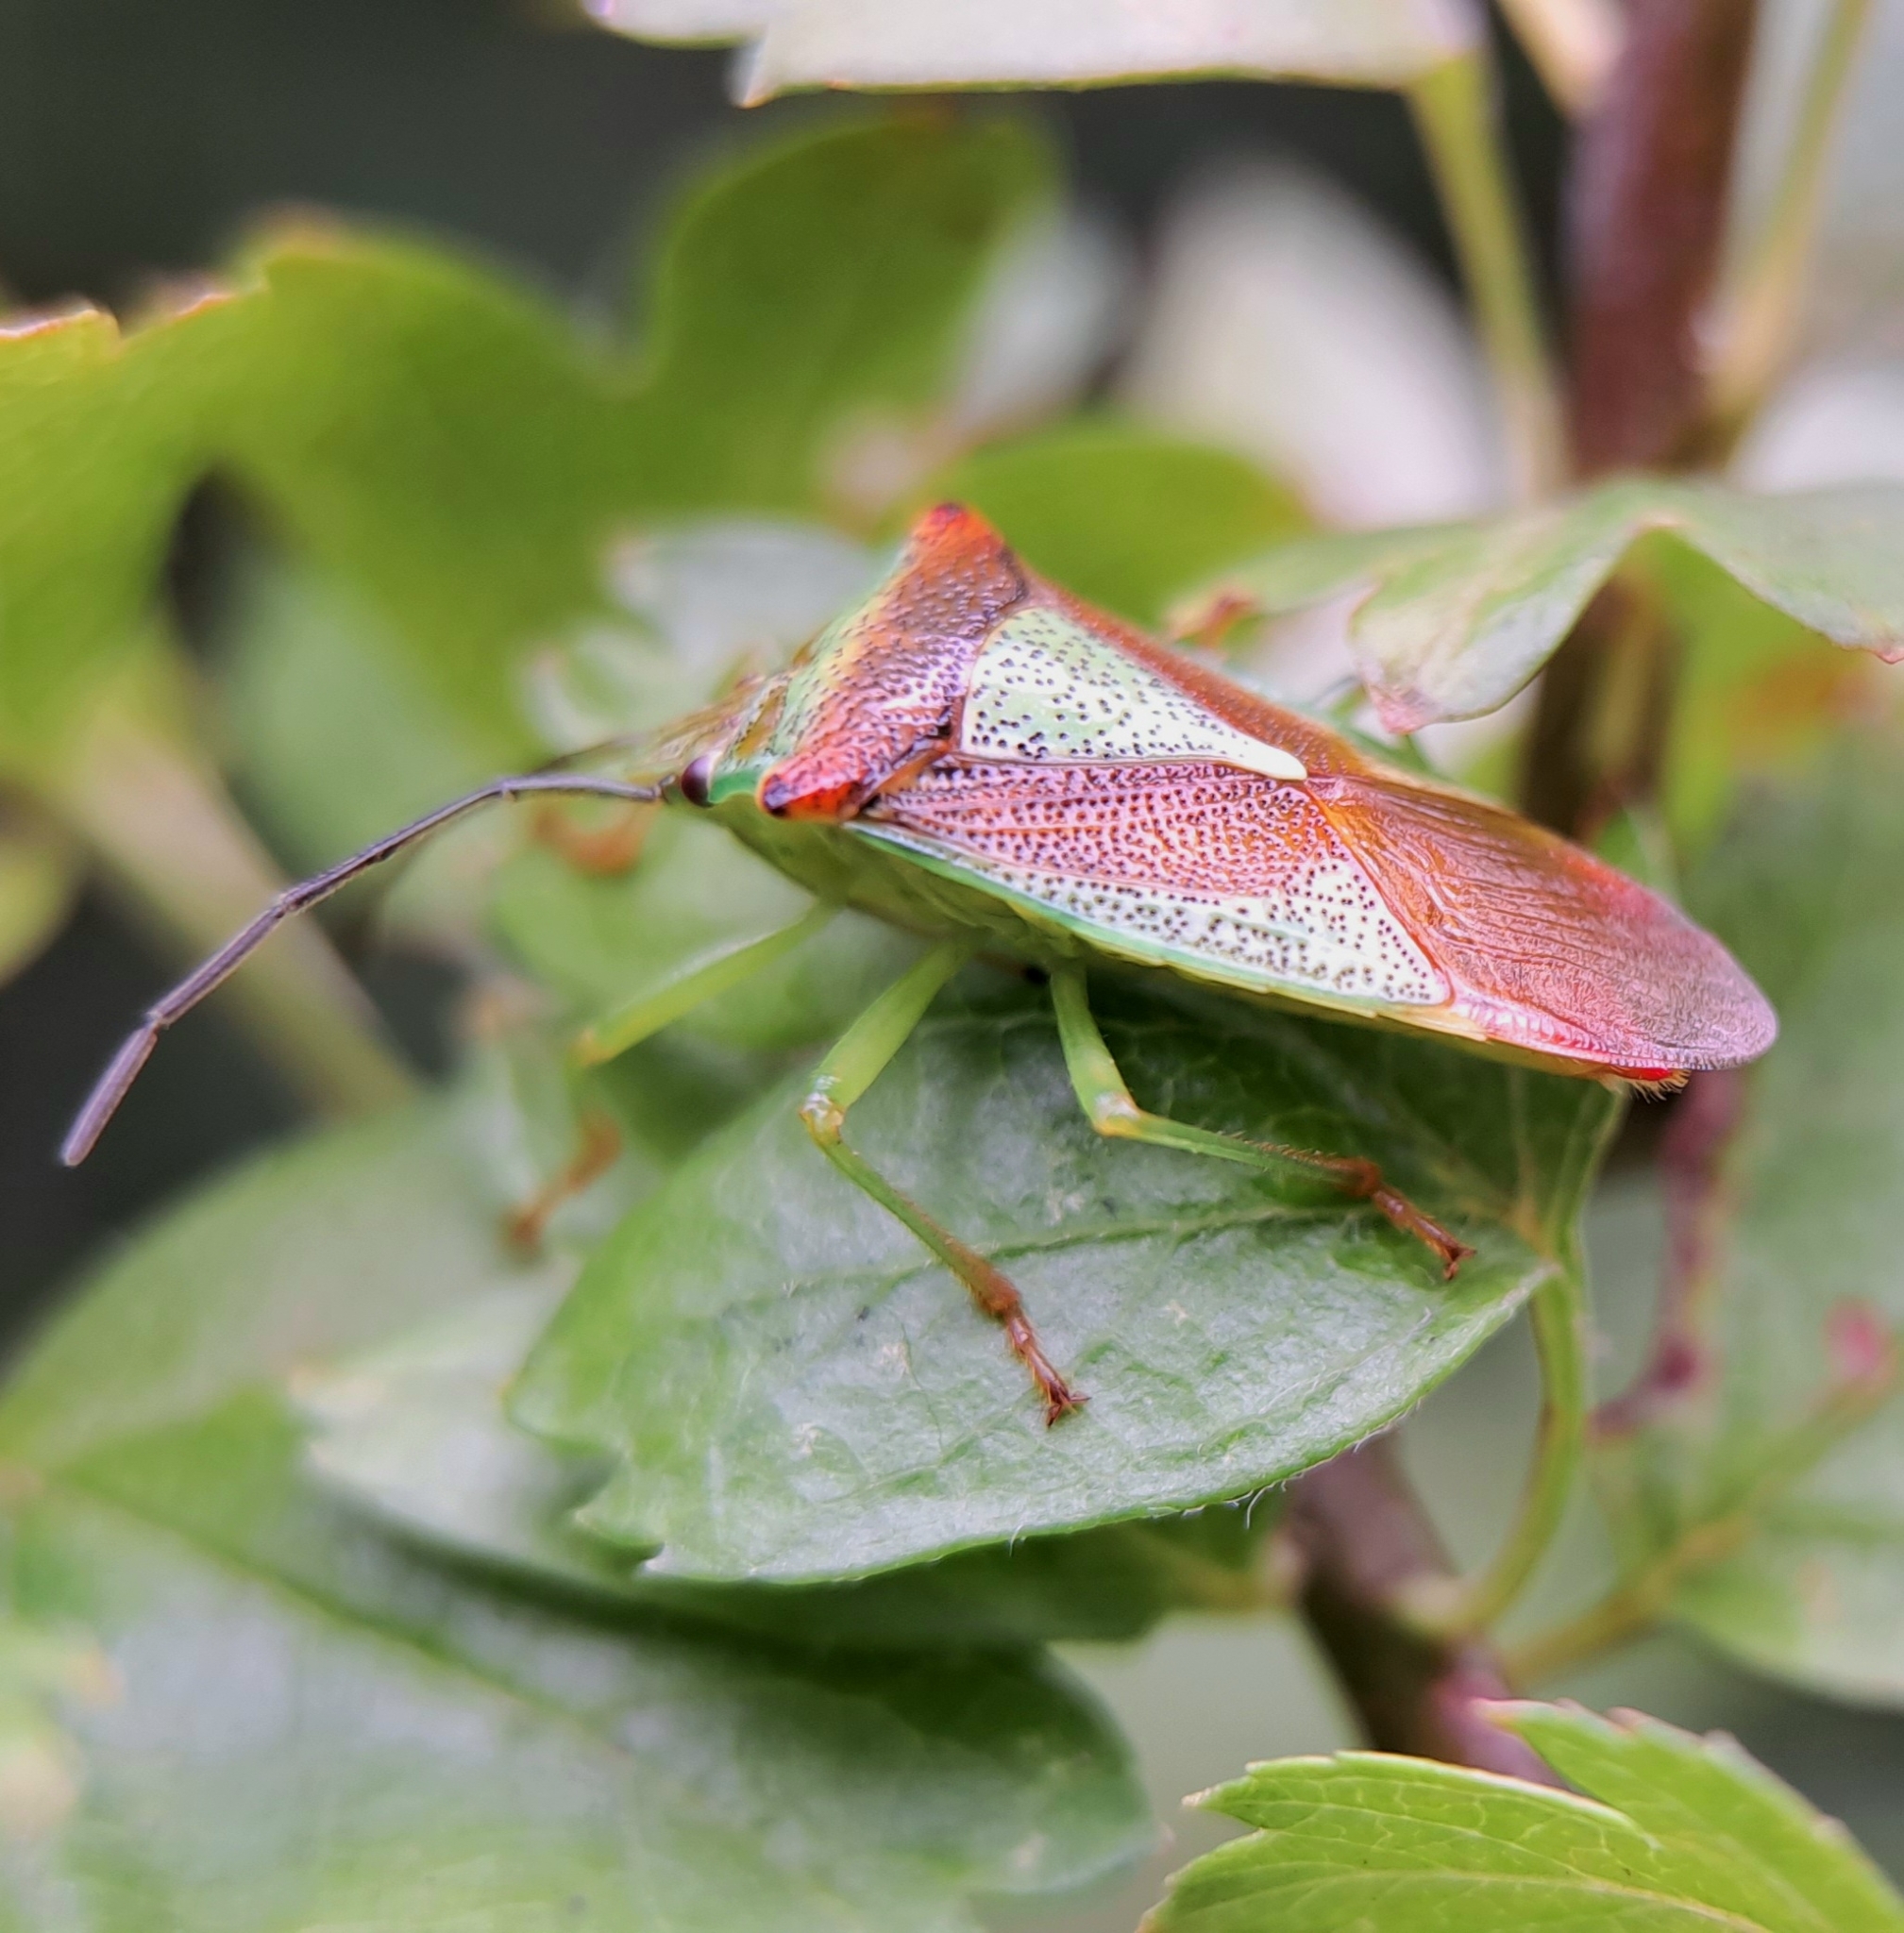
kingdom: Animalia
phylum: Arthropoda
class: Insecta
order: Hemiptera
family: Acanthosomatidae
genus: Acanthosoma
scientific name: Acanthosoma haemorrhoidale
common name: Hawthorn shieldbug
